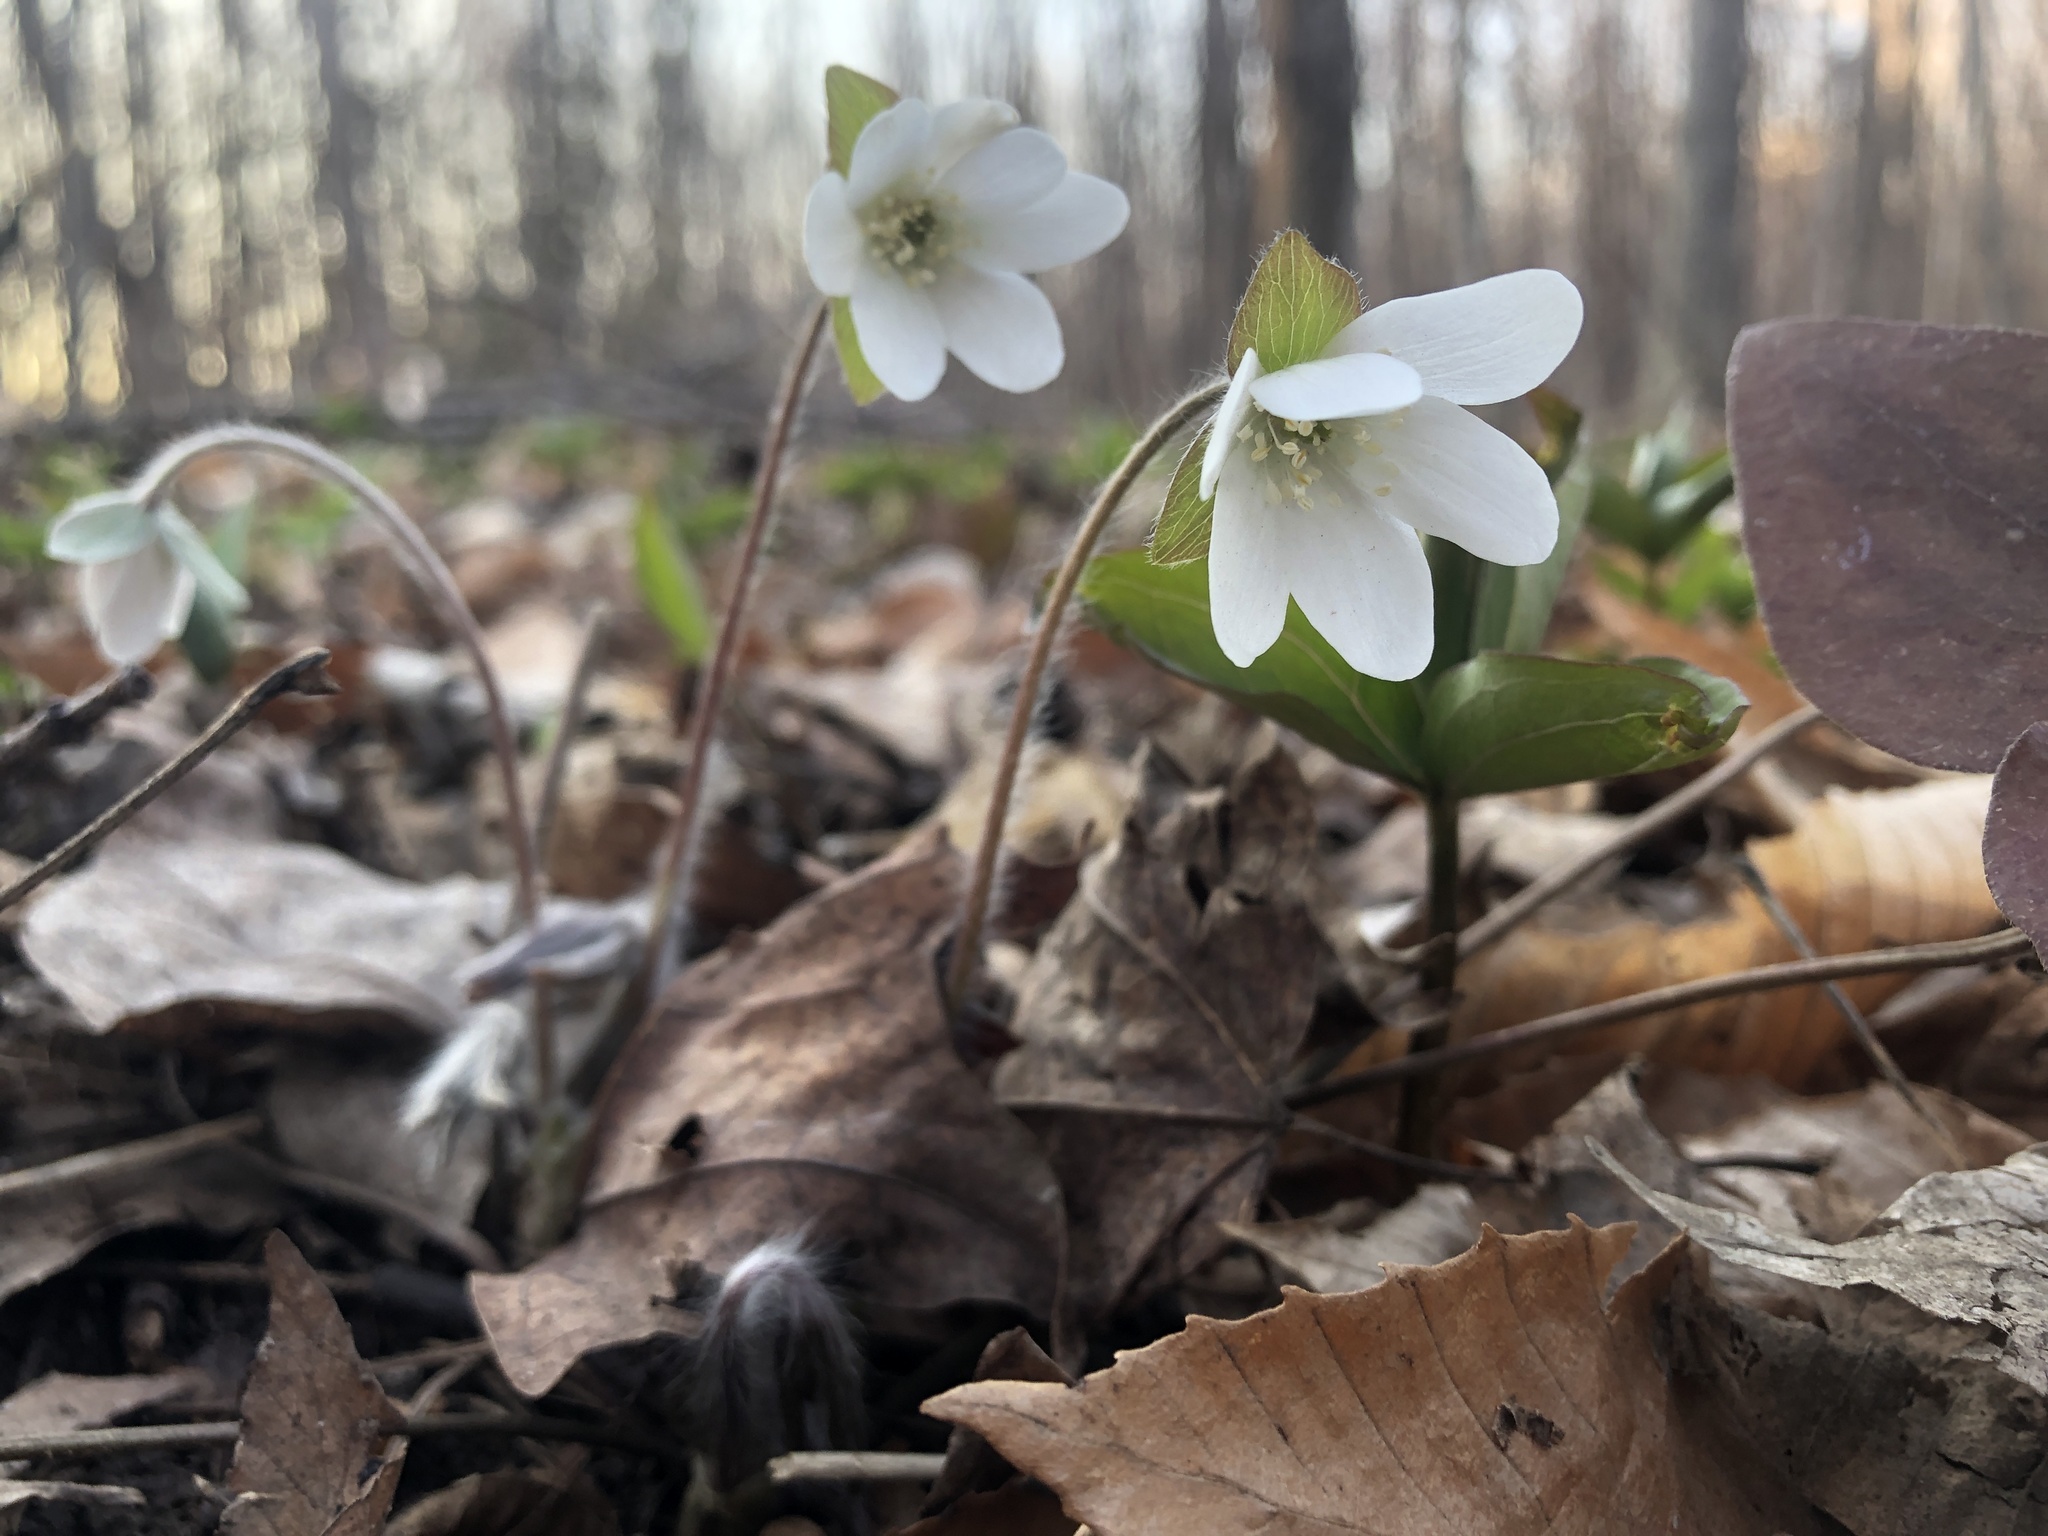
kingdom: Plantae
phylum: Tracheophyta
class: Magnoliopsida
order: Ranunculales
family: Ranunculaceae
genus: Hepatica
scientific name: Hepatica acutiloba
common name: Sharp-lobed hepatica
